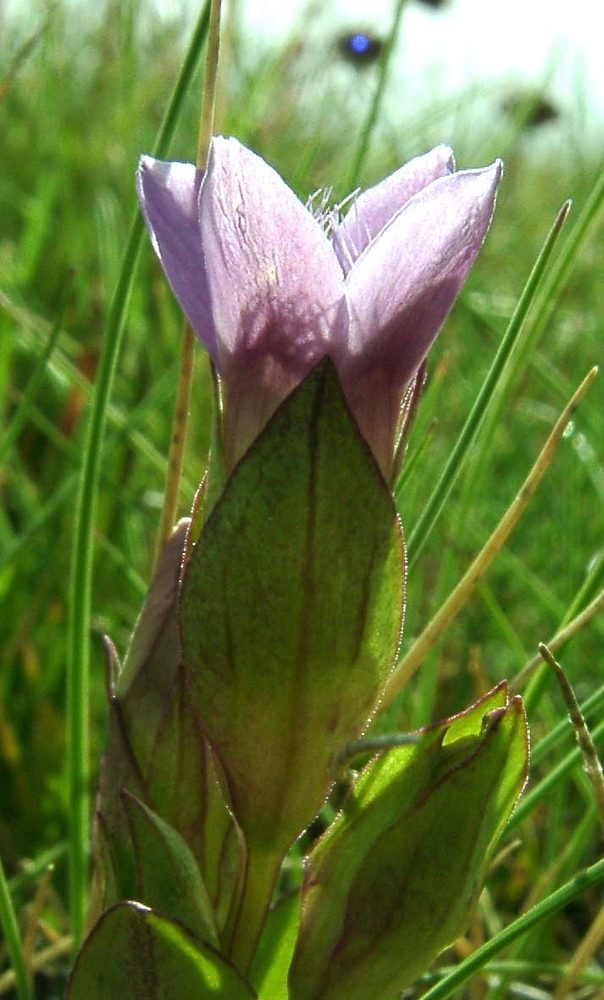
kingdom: Plantae
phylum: Tracheophyta
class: Magnoliopsida
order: Gentianales
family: Gentianaceae
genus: Gentianella
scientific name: Gentianella campestris
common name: Field gentian
